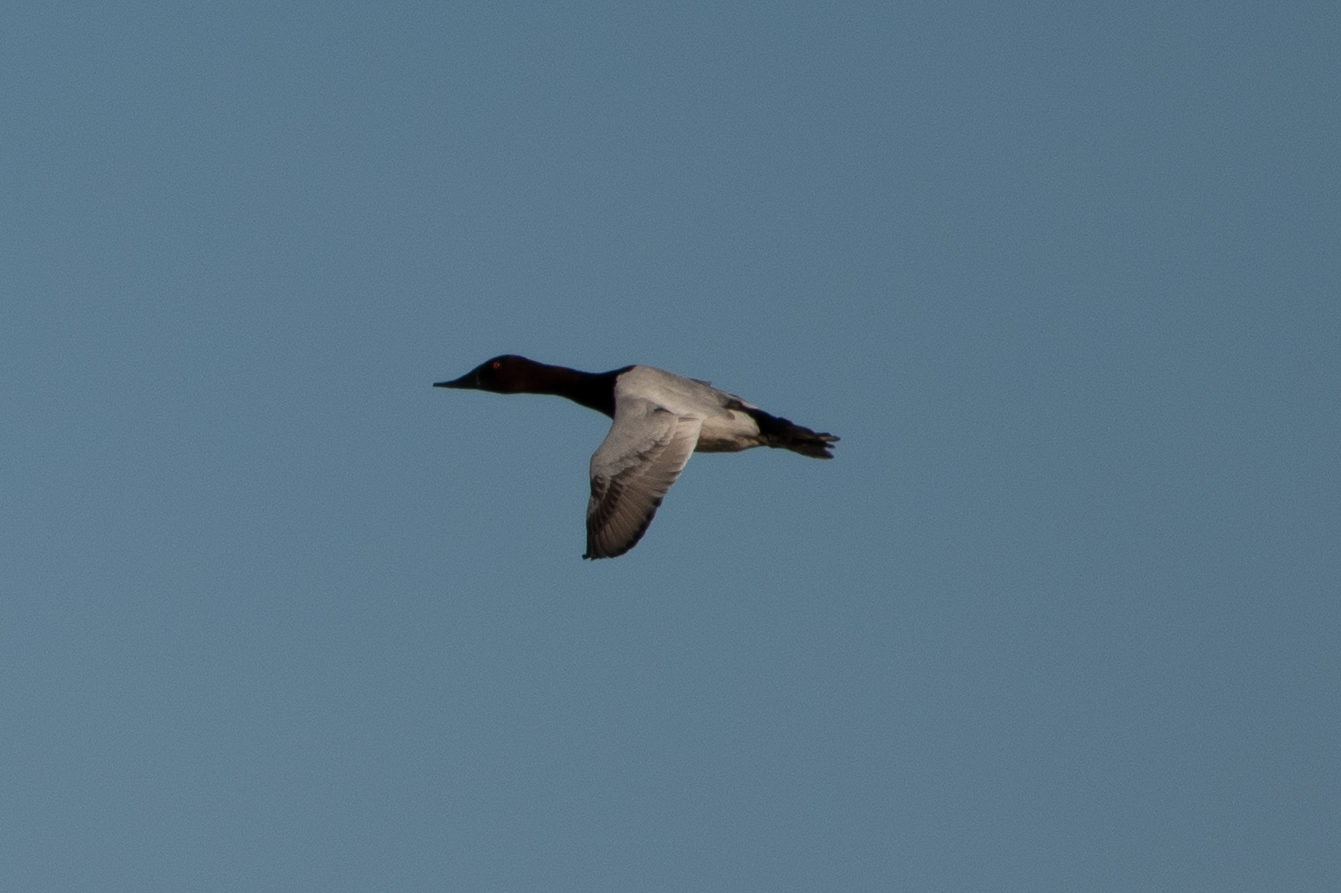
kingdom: Animalia
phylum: Chordata
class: Aves
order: Anseriformes
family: Anatidae
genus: Aythya
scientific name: Aythya valisineria
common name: Canvasback
